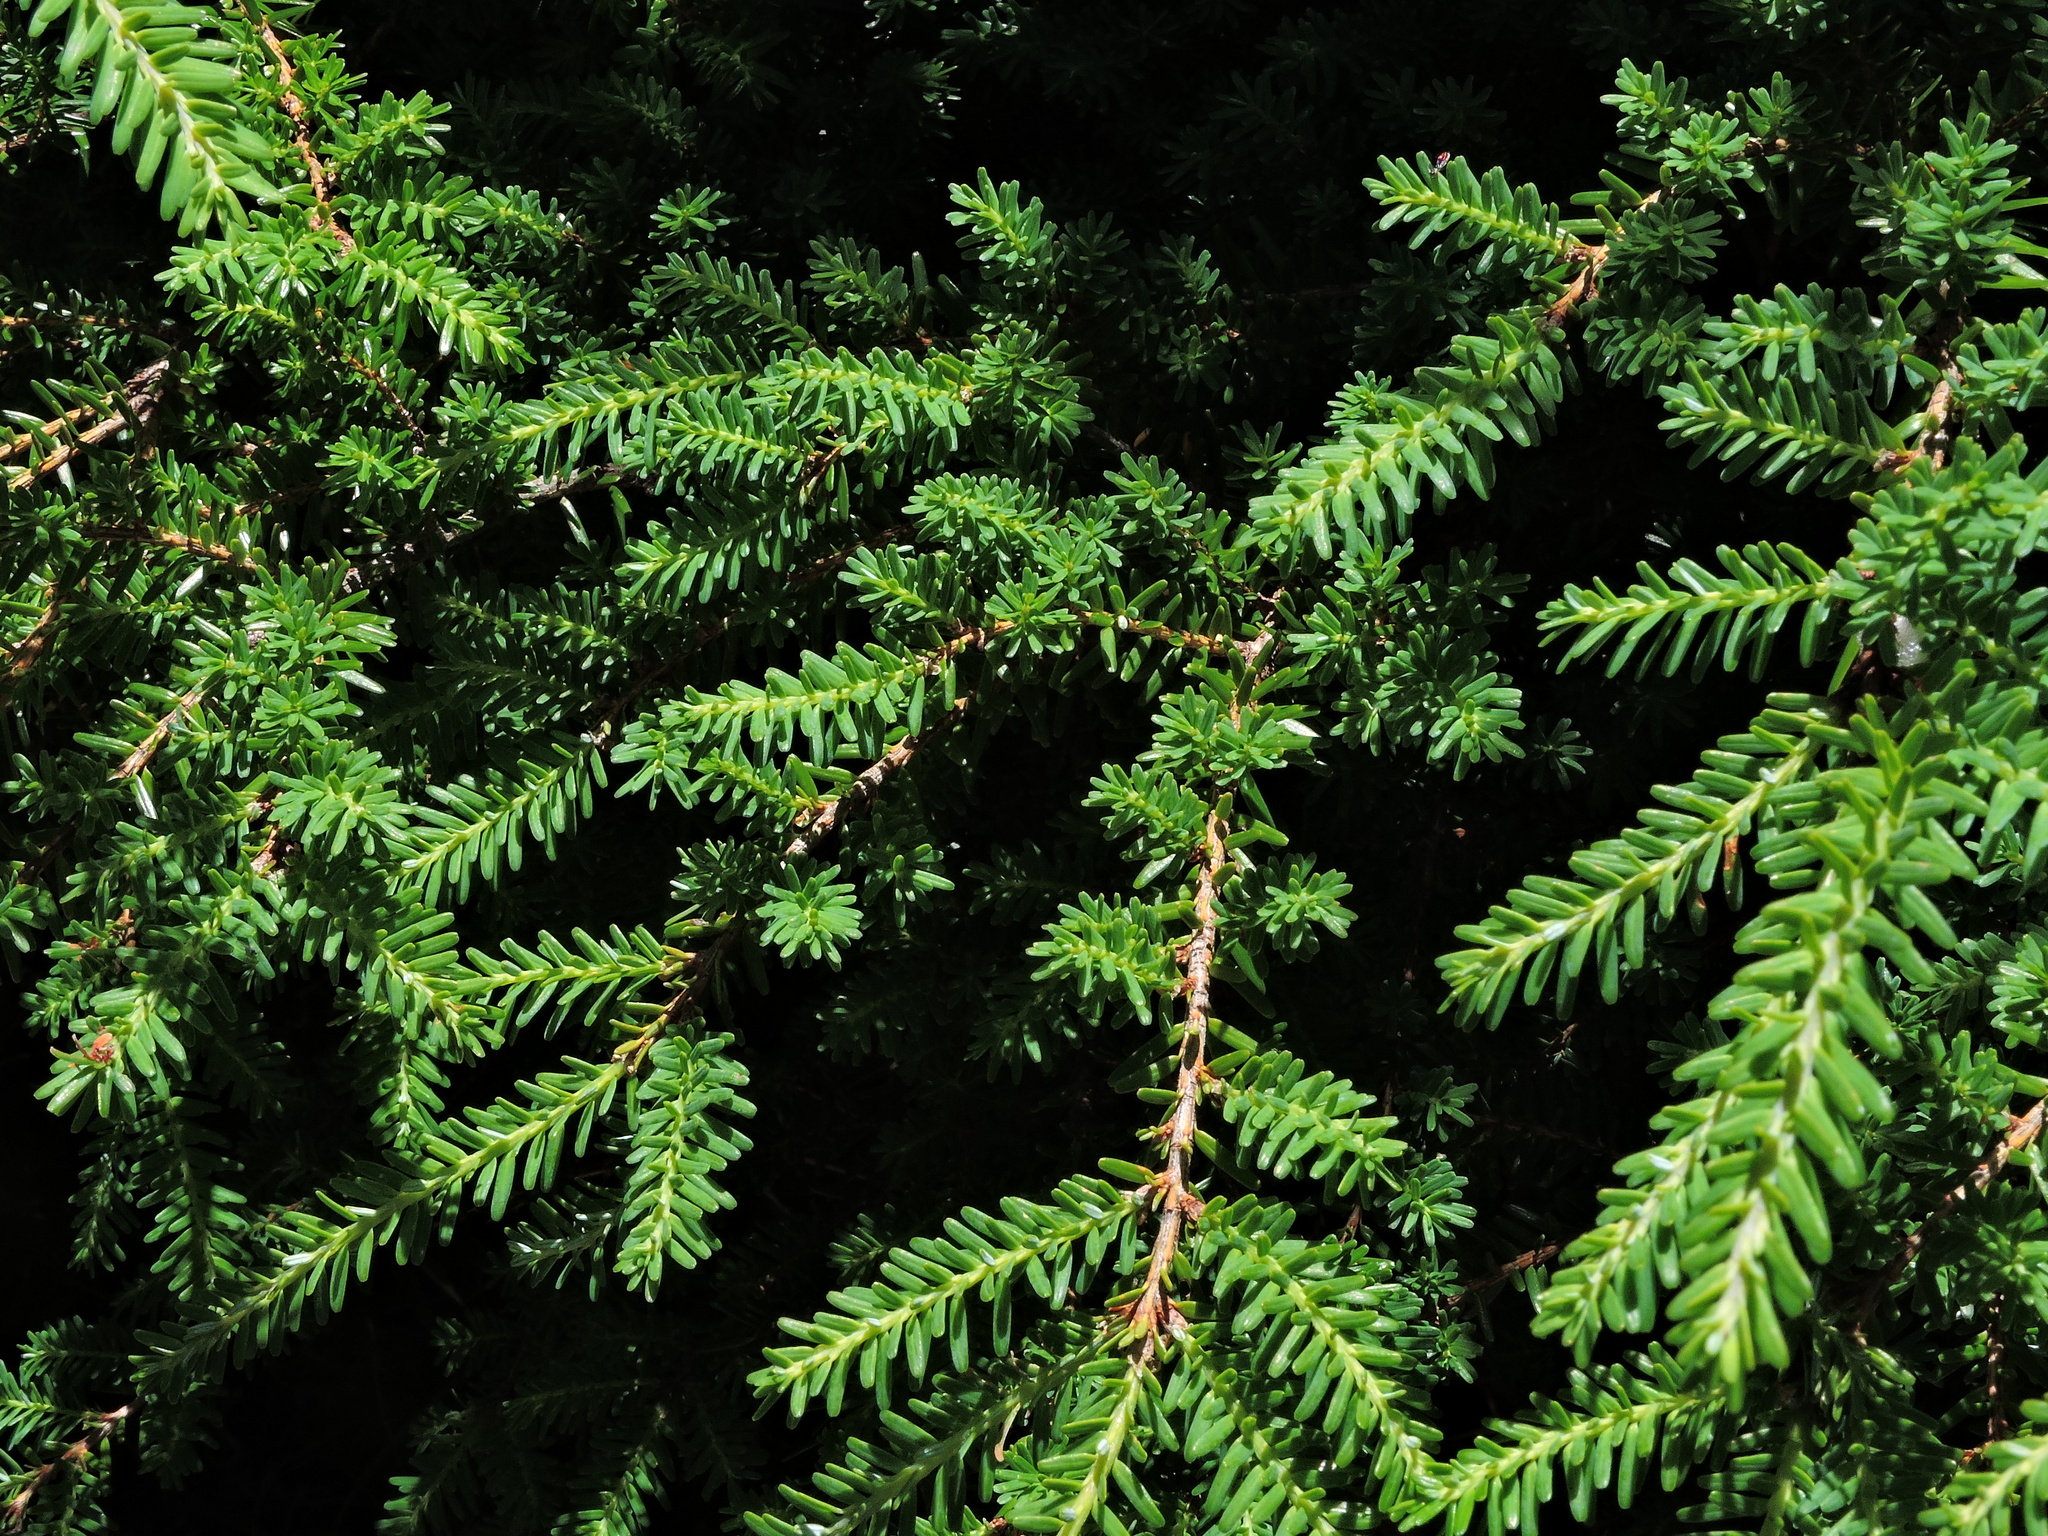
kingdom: Plantae
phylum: Tracheophyta
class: Pinopsida
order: Pinales
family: Pinaceae
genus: Tsuga
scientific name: Tsuga chinensis
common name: Chinese hemlock
